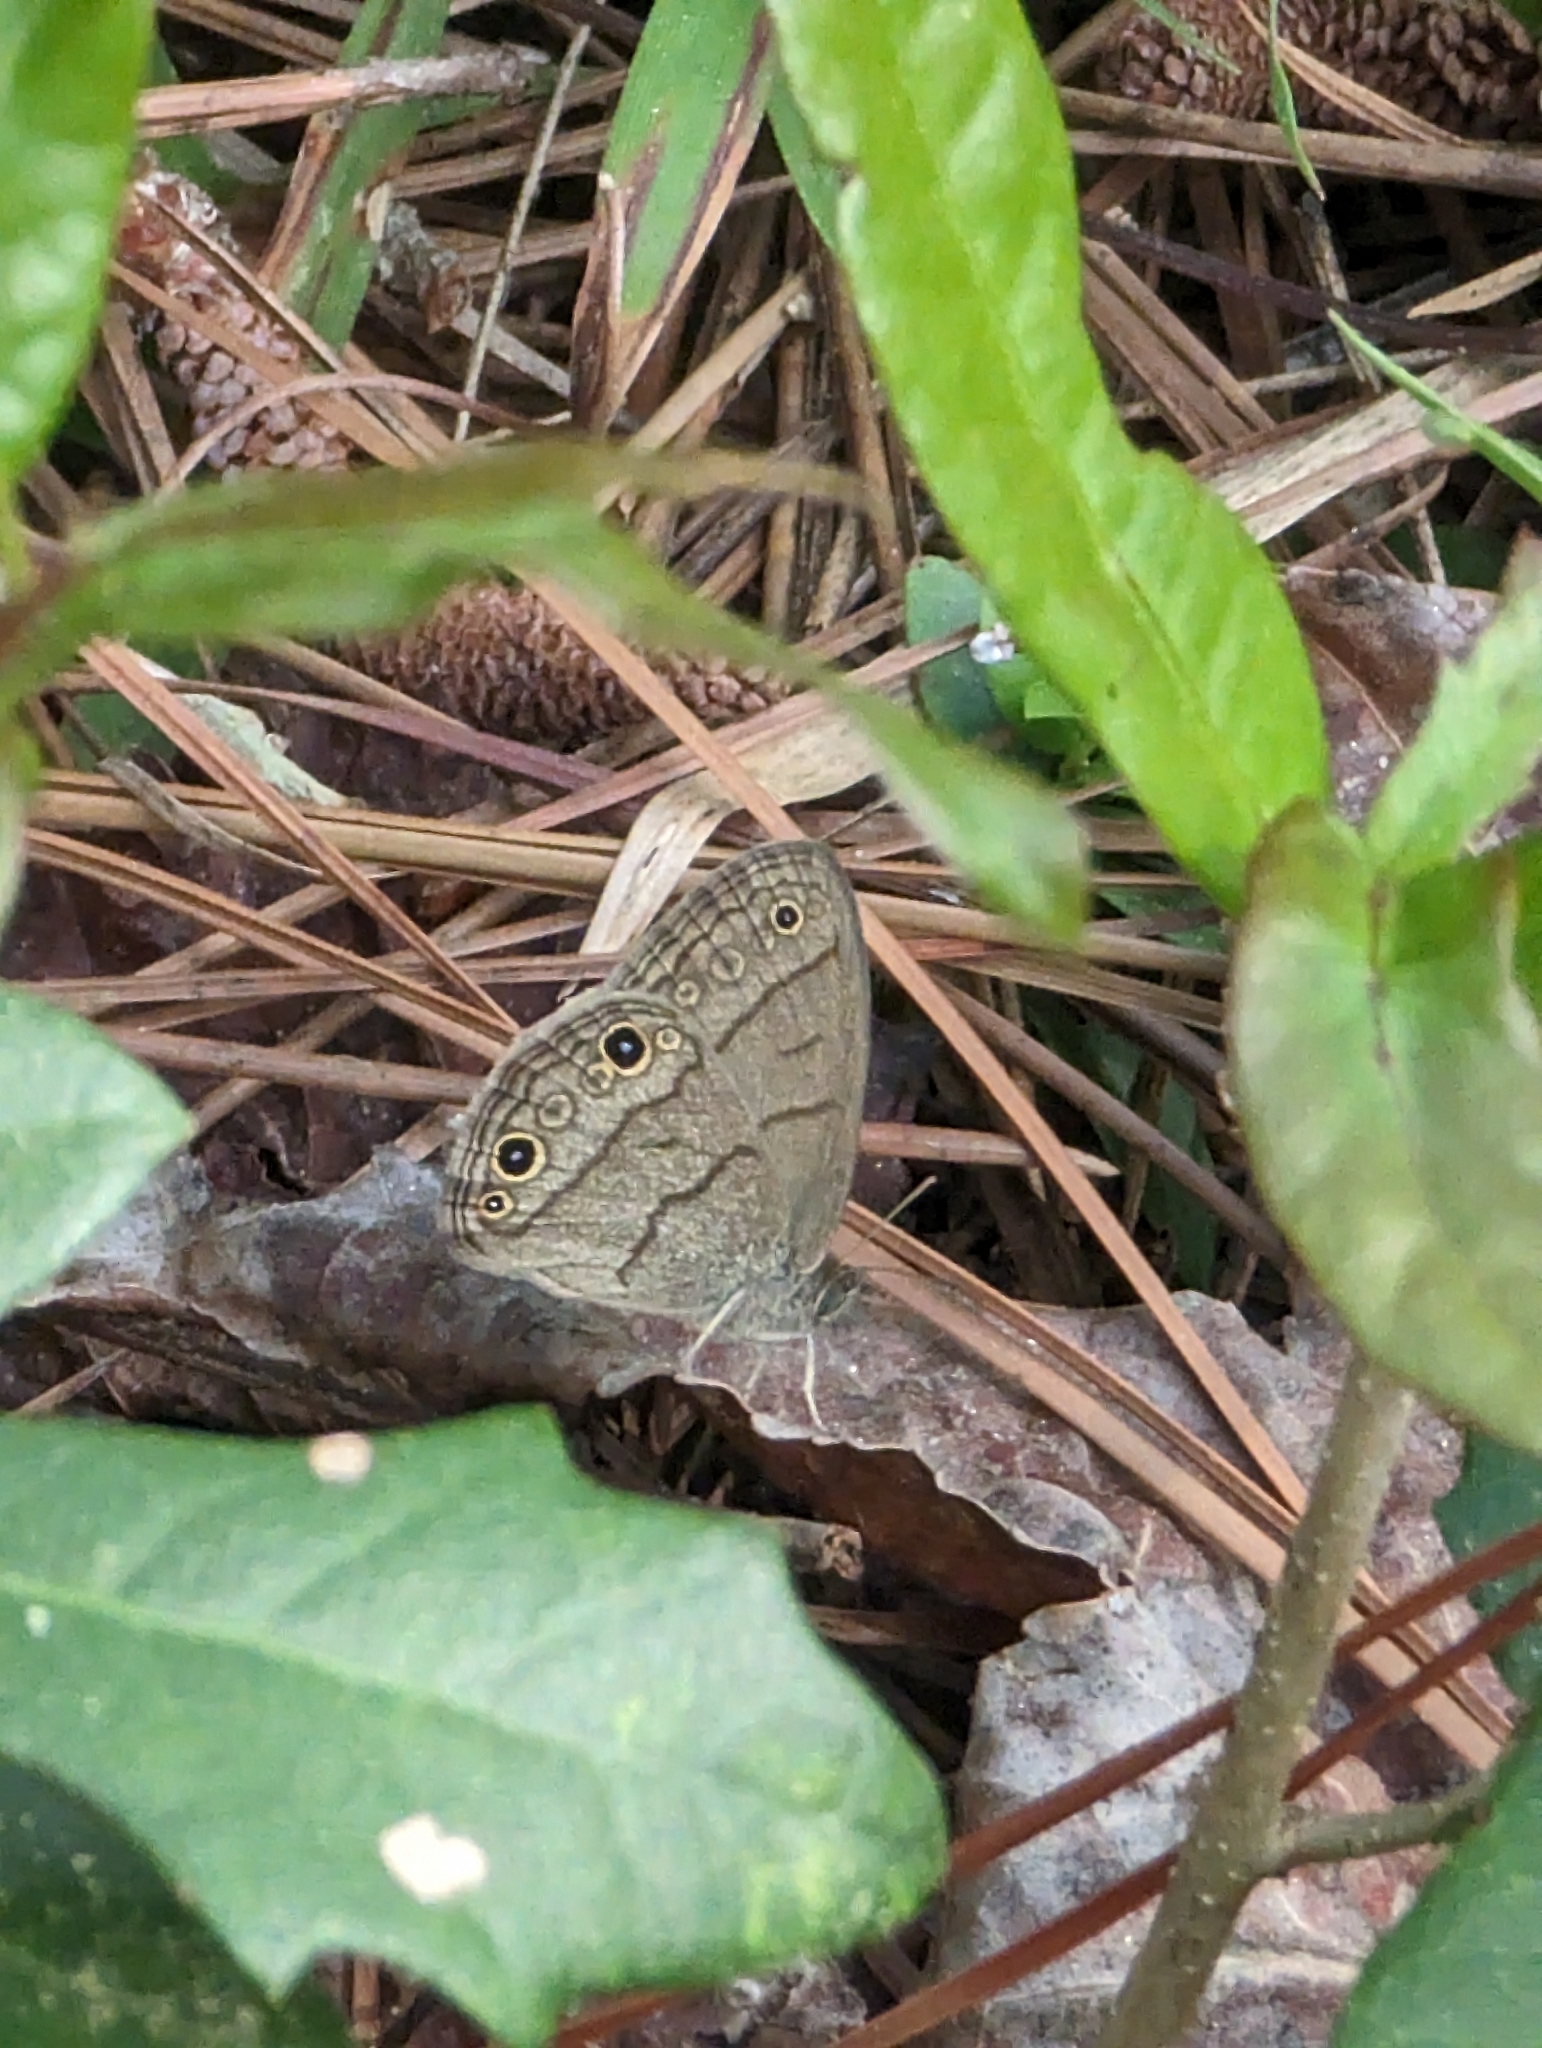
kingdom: Animalia
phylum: Arthropoda
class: Insecta
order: Lepidoptera
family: Nymphalidae
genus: Hermeuptychia
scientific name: Hermeuptychia hermes
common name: Hermes satyr
